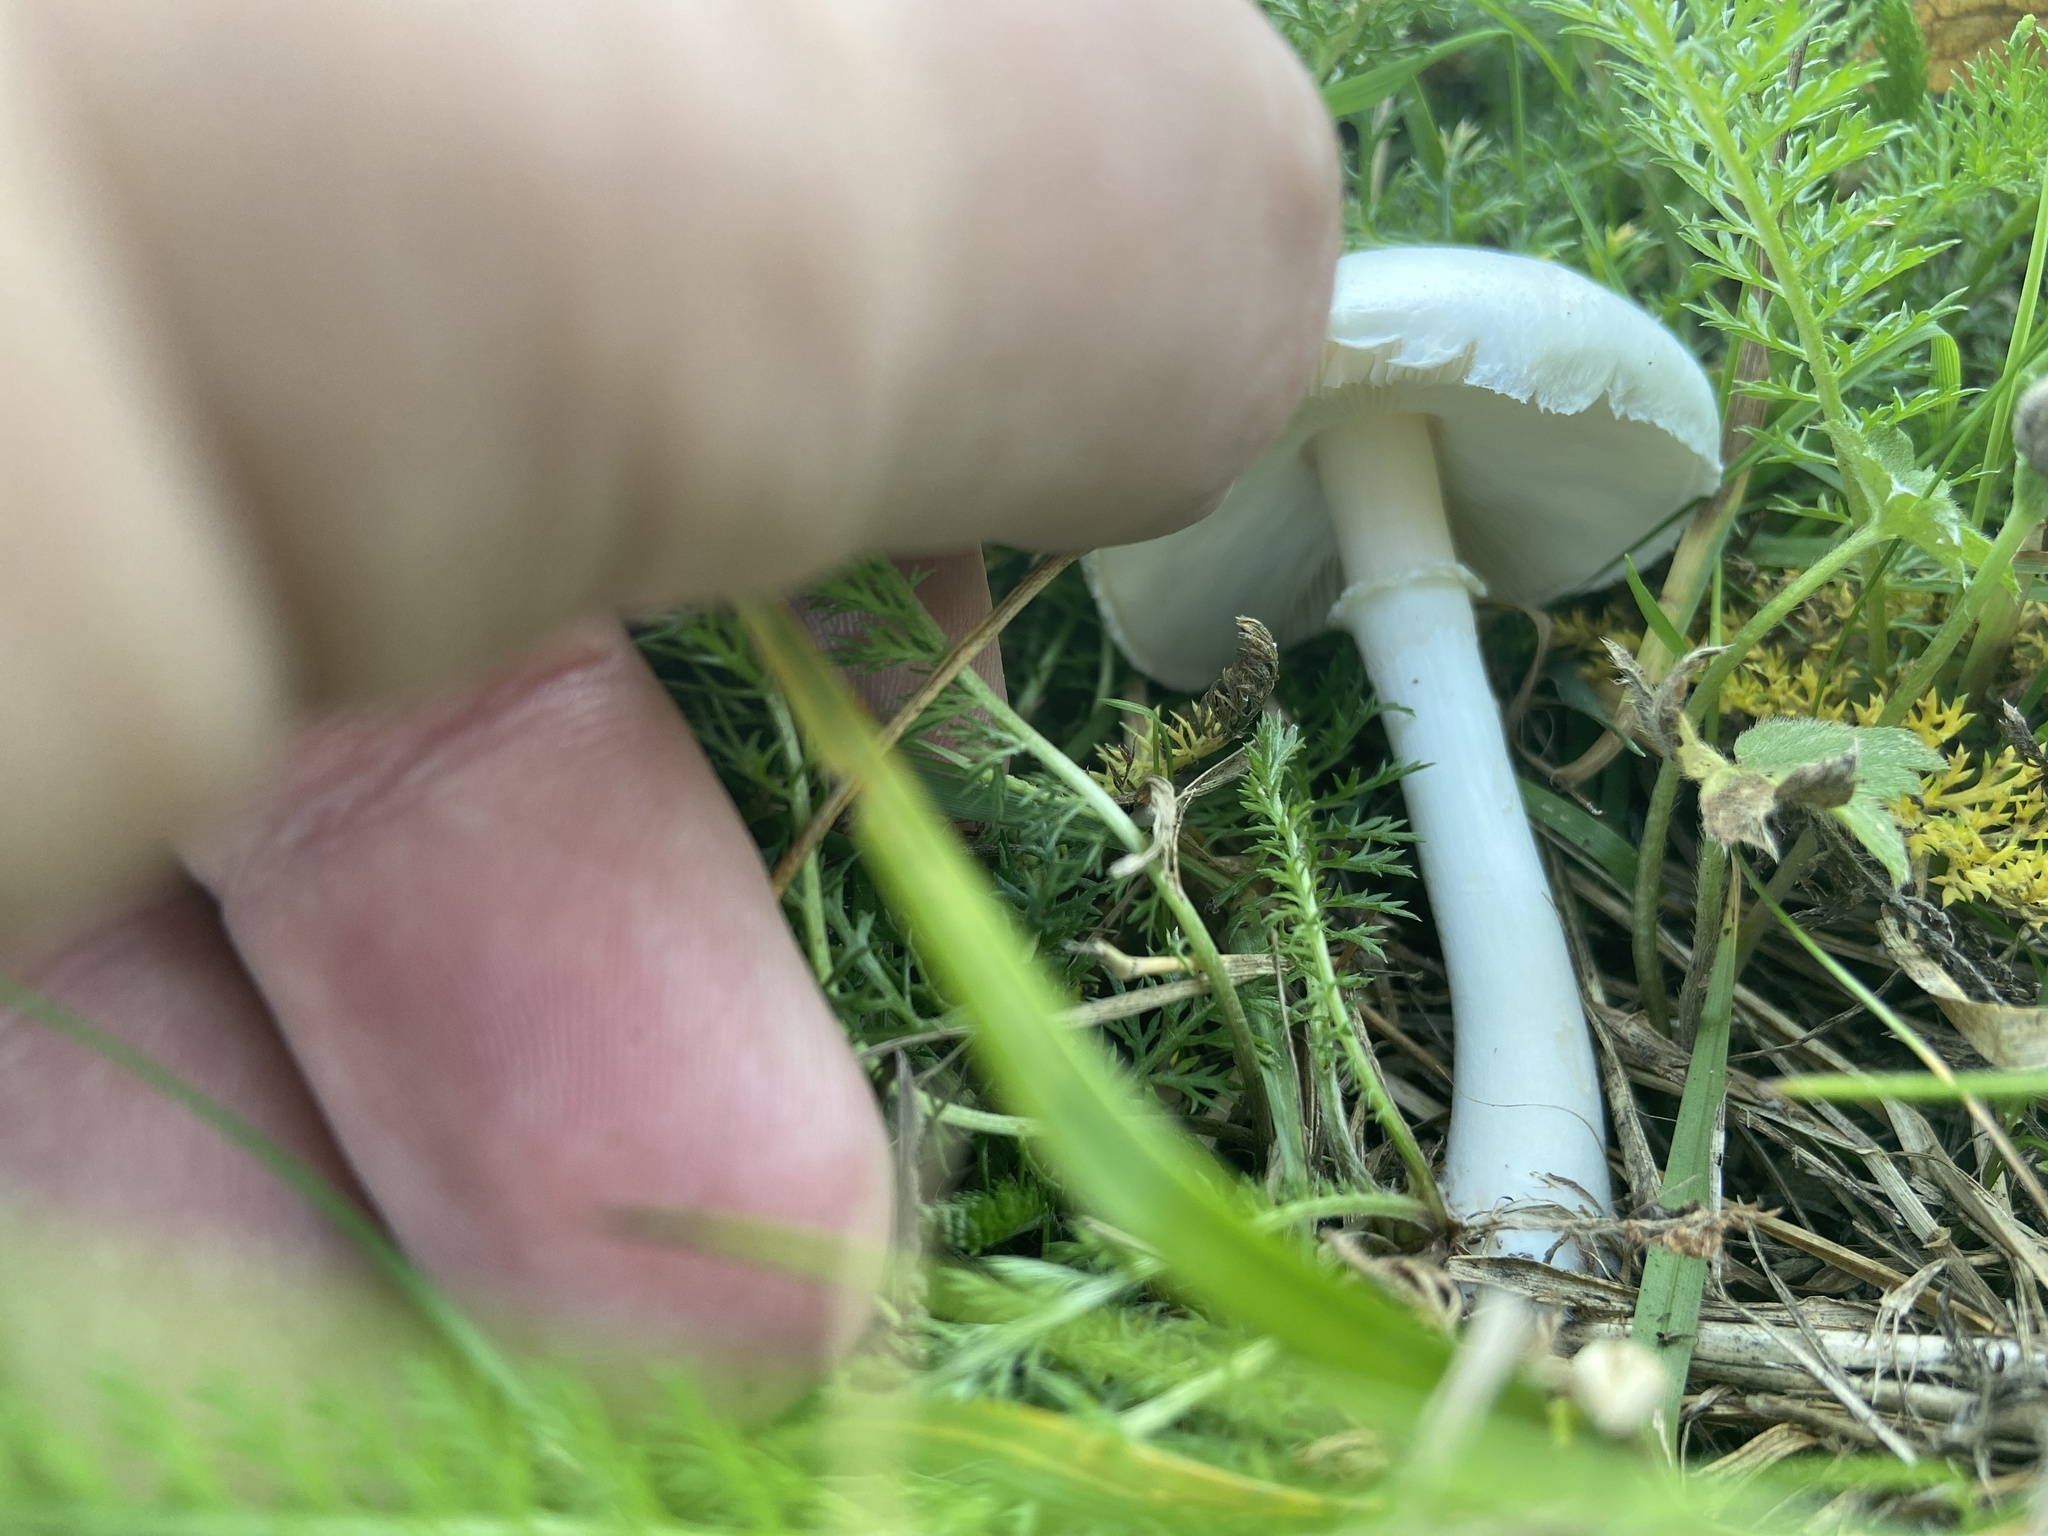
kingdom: Fungi
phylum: Basidiomycota
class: Agaricomycetes
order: Agaricales
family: Agaricaceae
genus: Leucoagaricus
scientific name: Leucoagaricus leucothites
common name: White dapperling
